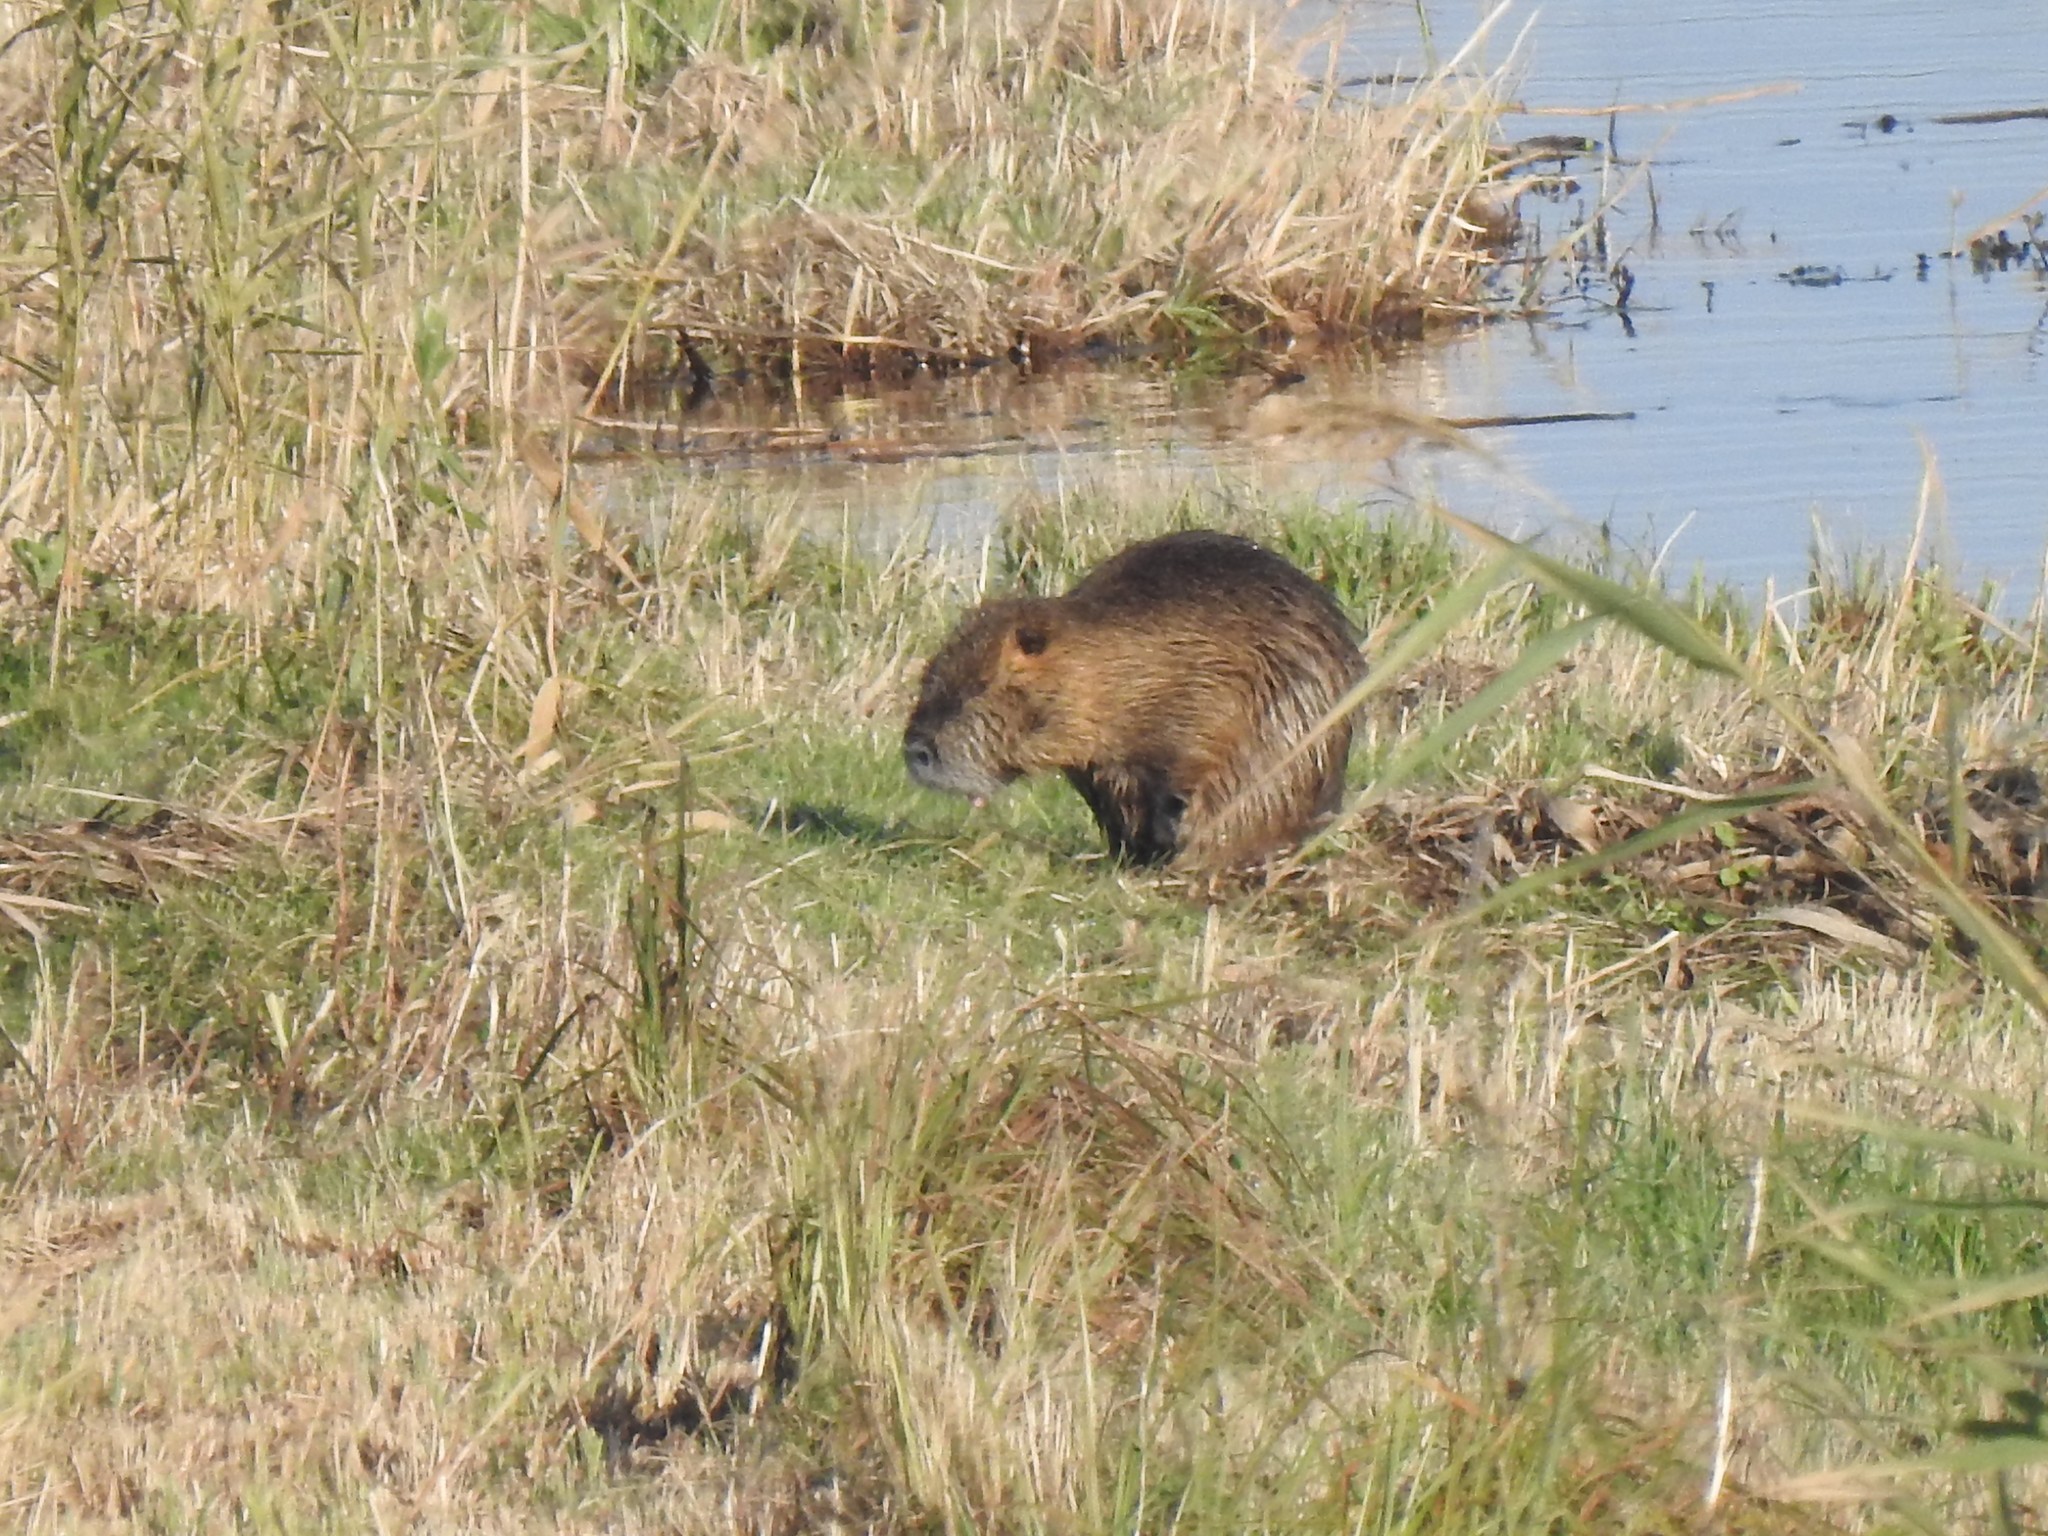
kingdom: Animalia
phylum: Chordata
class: Mammalia
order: Rodentia
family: Myocastoridae
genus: Myocastor
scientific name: Myocastor coypus
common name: Coypu
